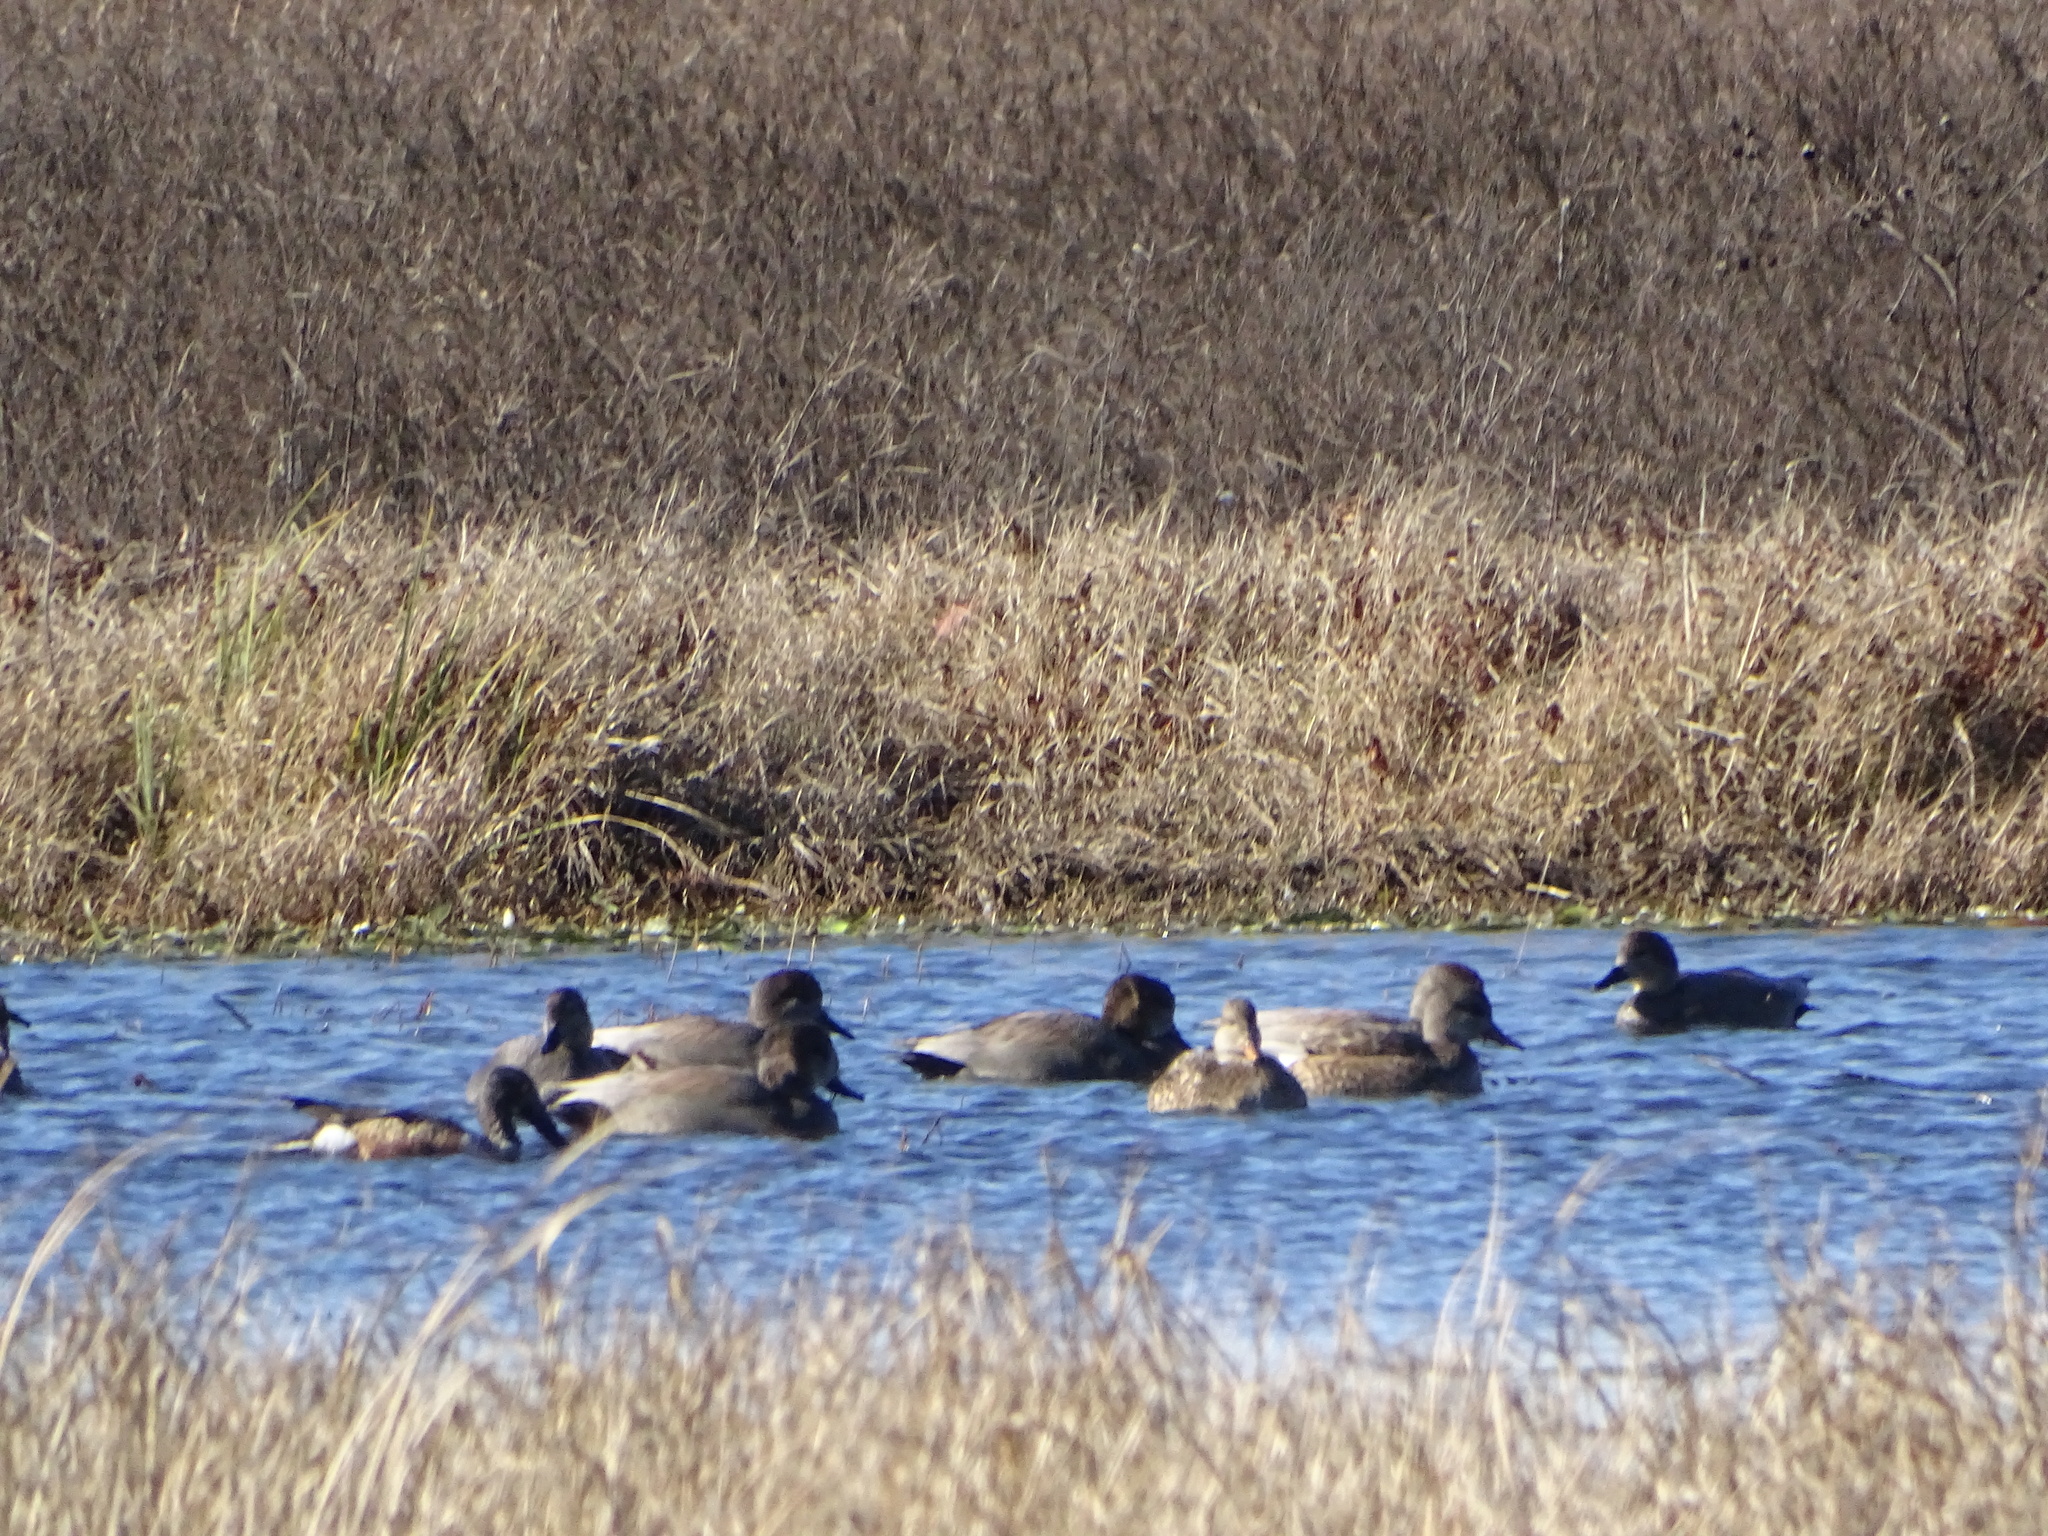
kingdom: Animalia
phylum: Chordata
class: Aves
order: Anseriformes
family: Anatidae
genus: Mareca
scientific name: Mareca strepera
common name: Gadwall
